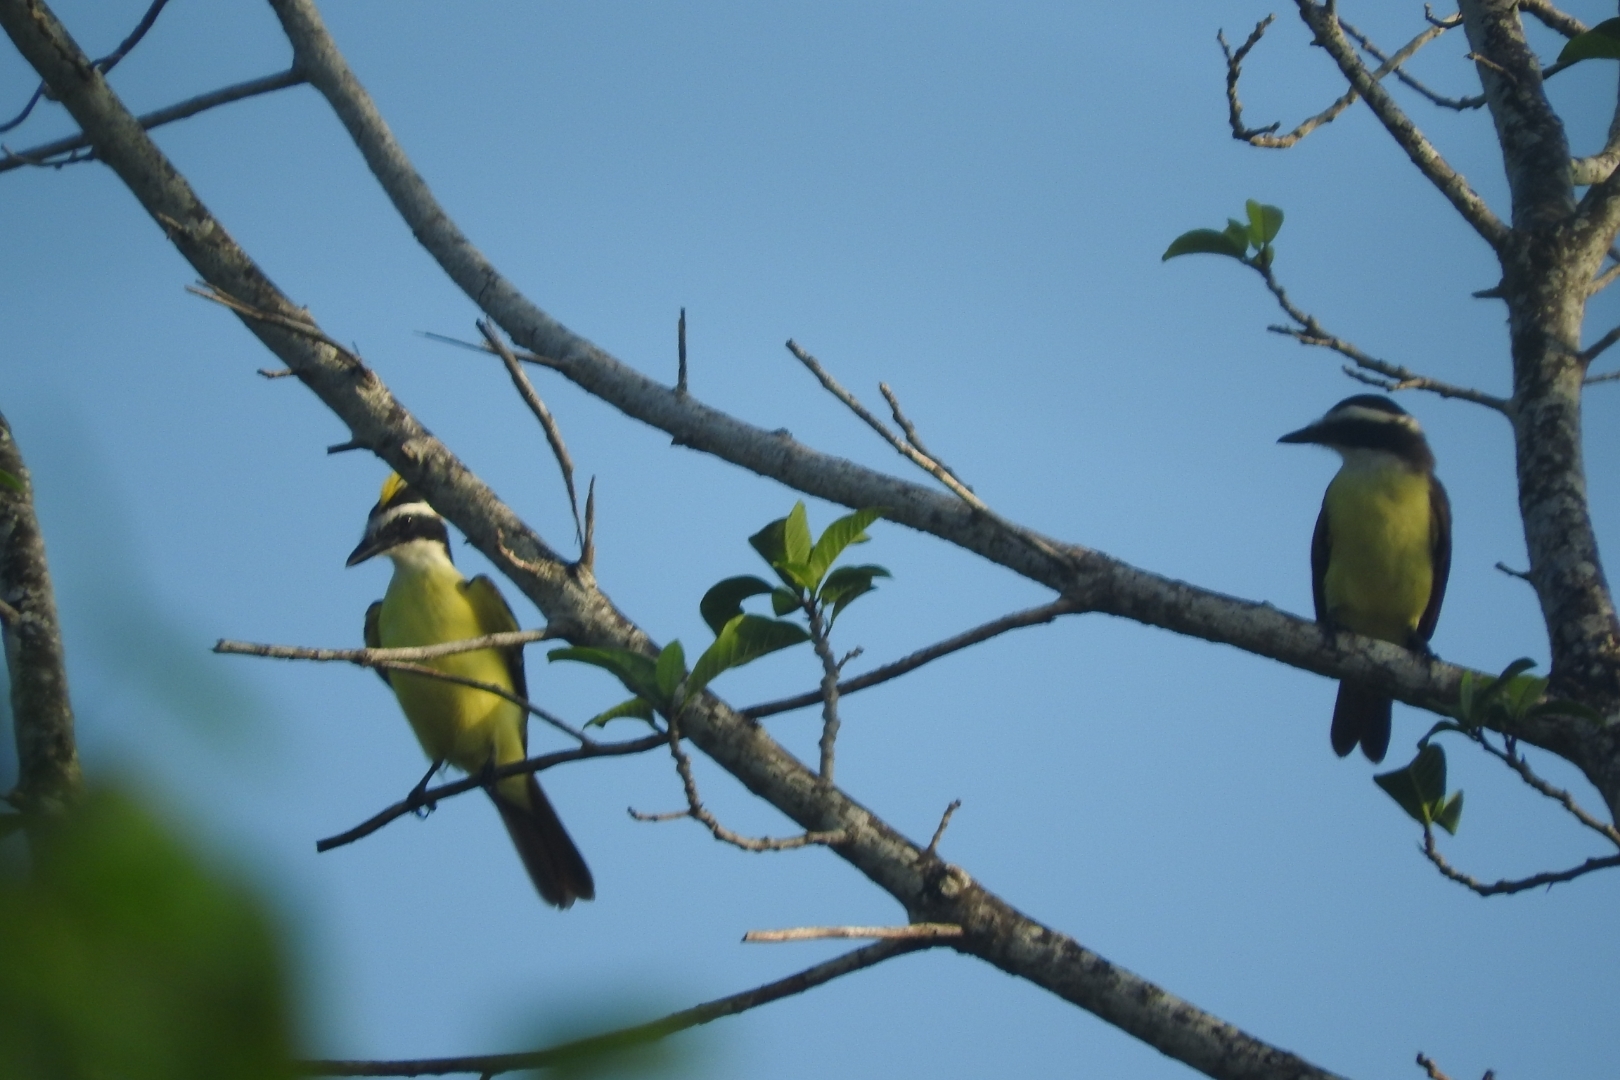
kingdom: Animalia
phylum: Chordata
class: Aves
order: Passeriformes
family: Tyrannidae
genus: Pitangus
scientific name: Pitangus sulphuratus
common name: Great kiskadee
